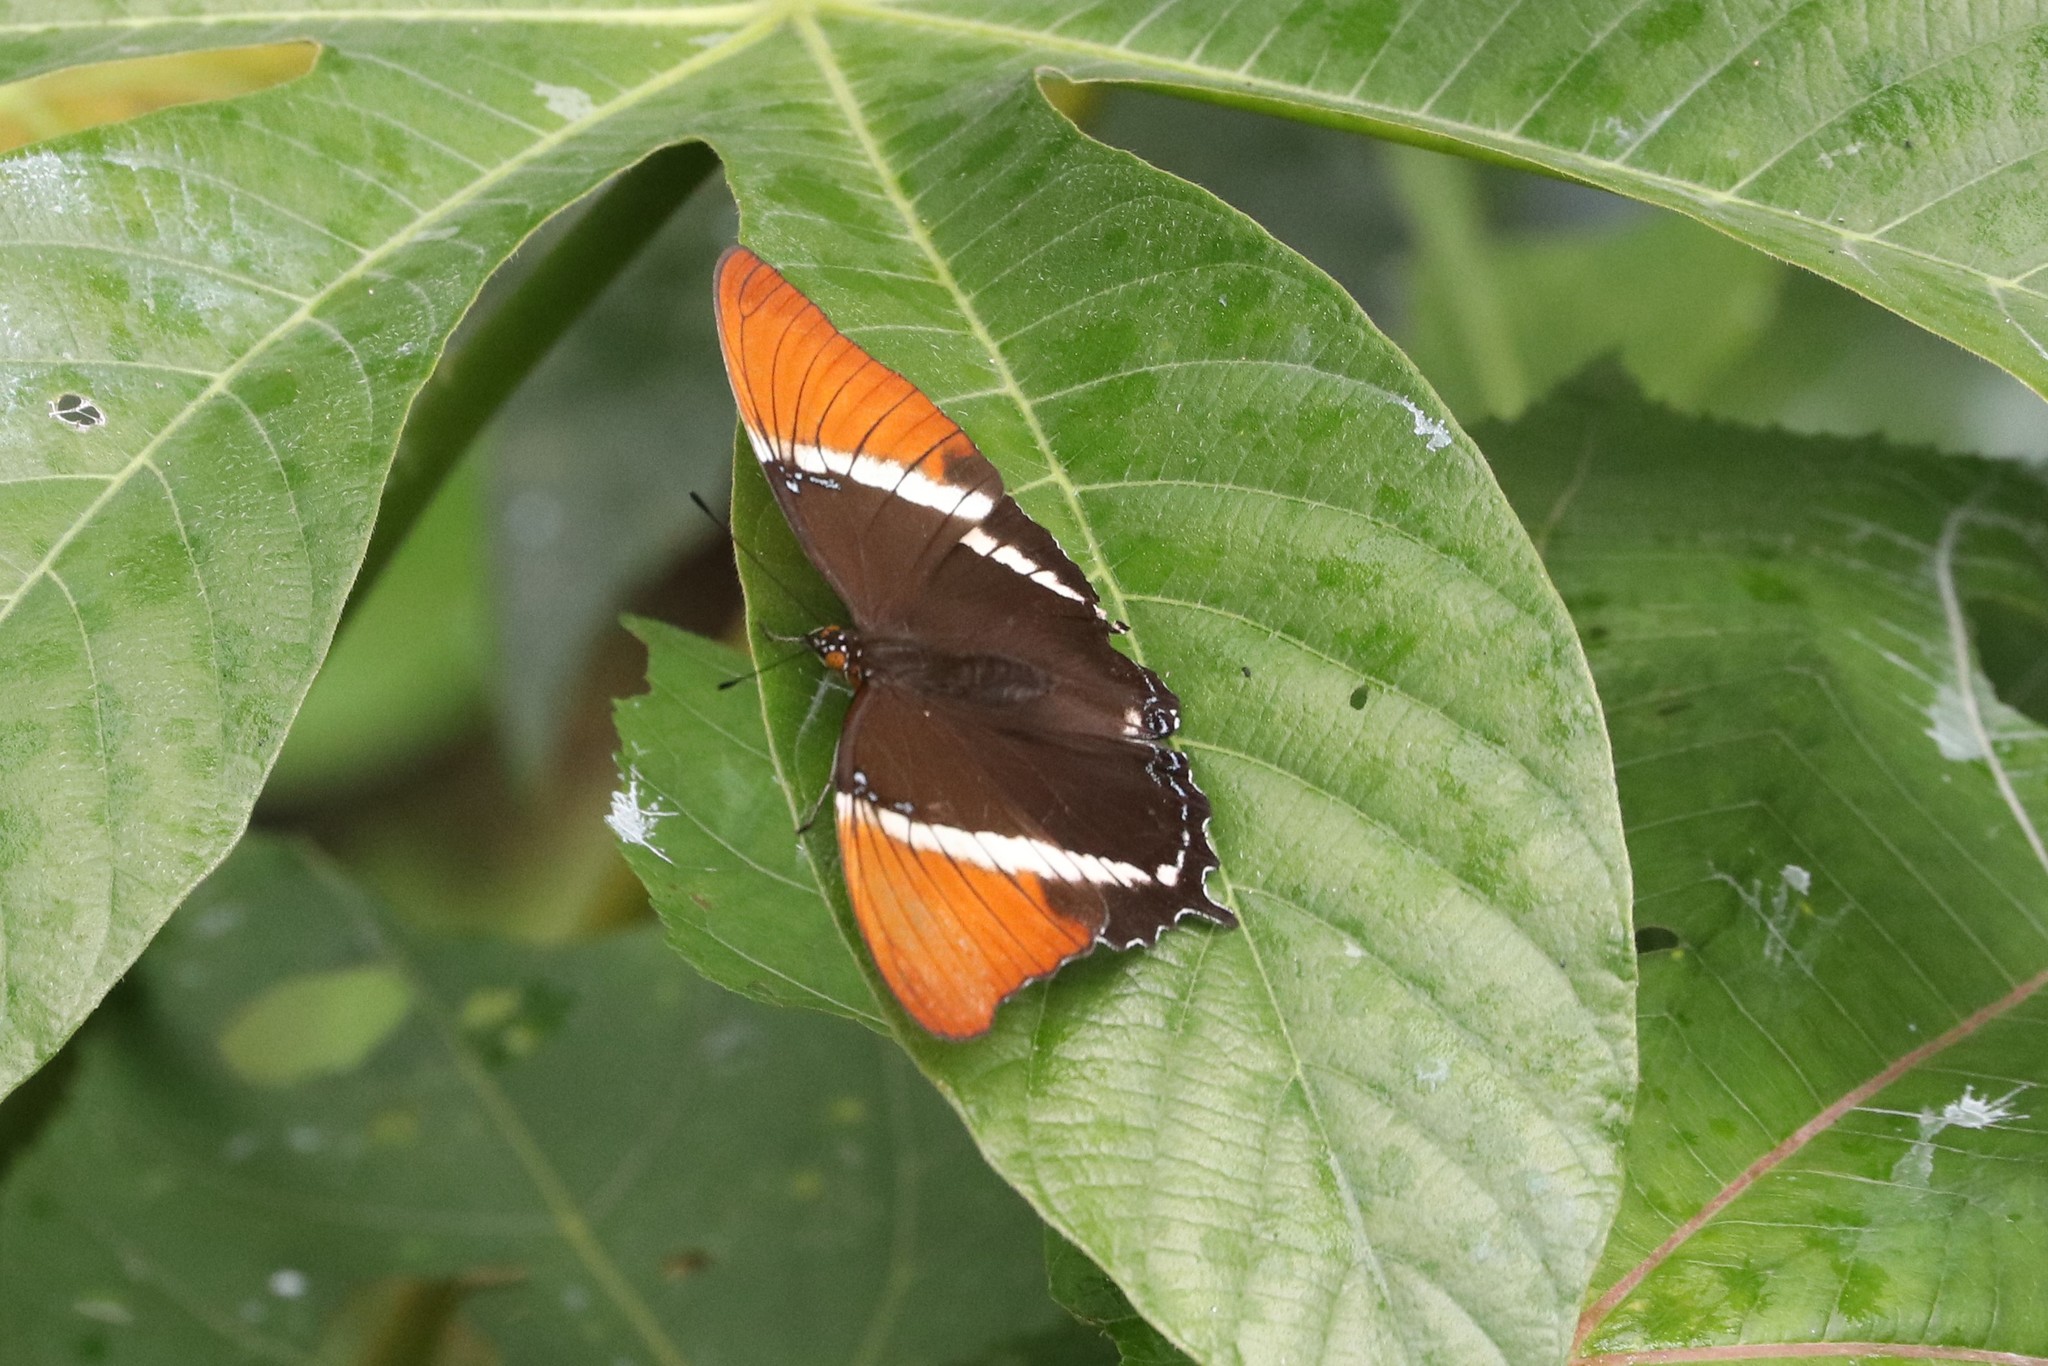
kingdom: Animalia
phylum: Arthropoda
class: Insecta
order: Lepidoptera
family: Nymphalidae
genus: Siproeta
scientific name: Siproeta epaphus
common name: Rusty-tipped page
